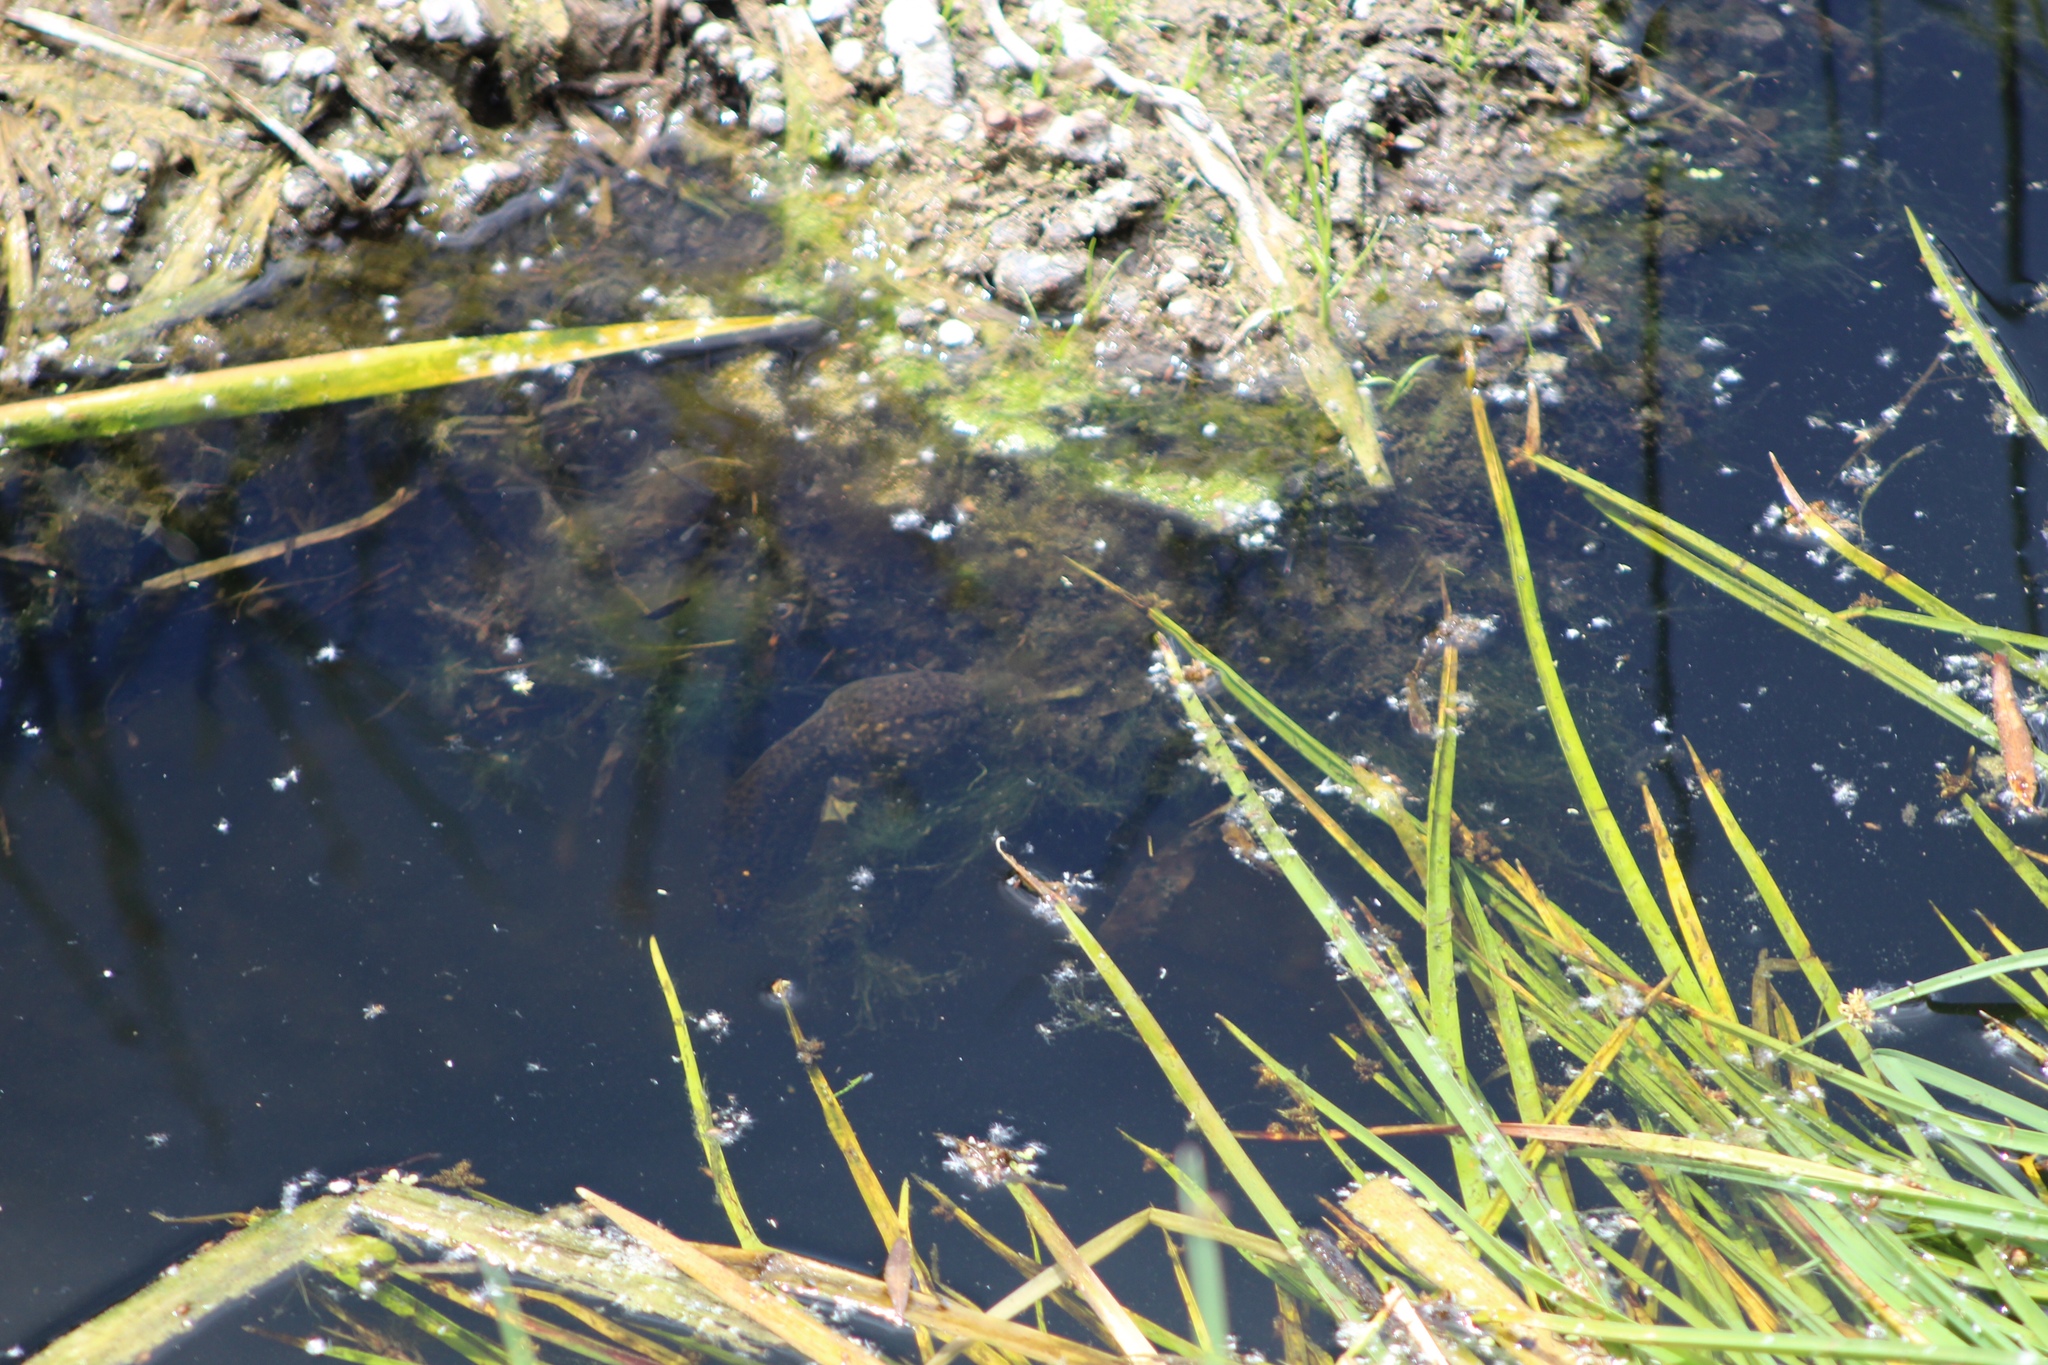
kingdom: Animalia
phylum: Chordata
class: Amphibia
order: Anura
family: Ranidae
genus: Lithobates
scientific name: Lithobates catesbeianus
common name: American bullfrog
